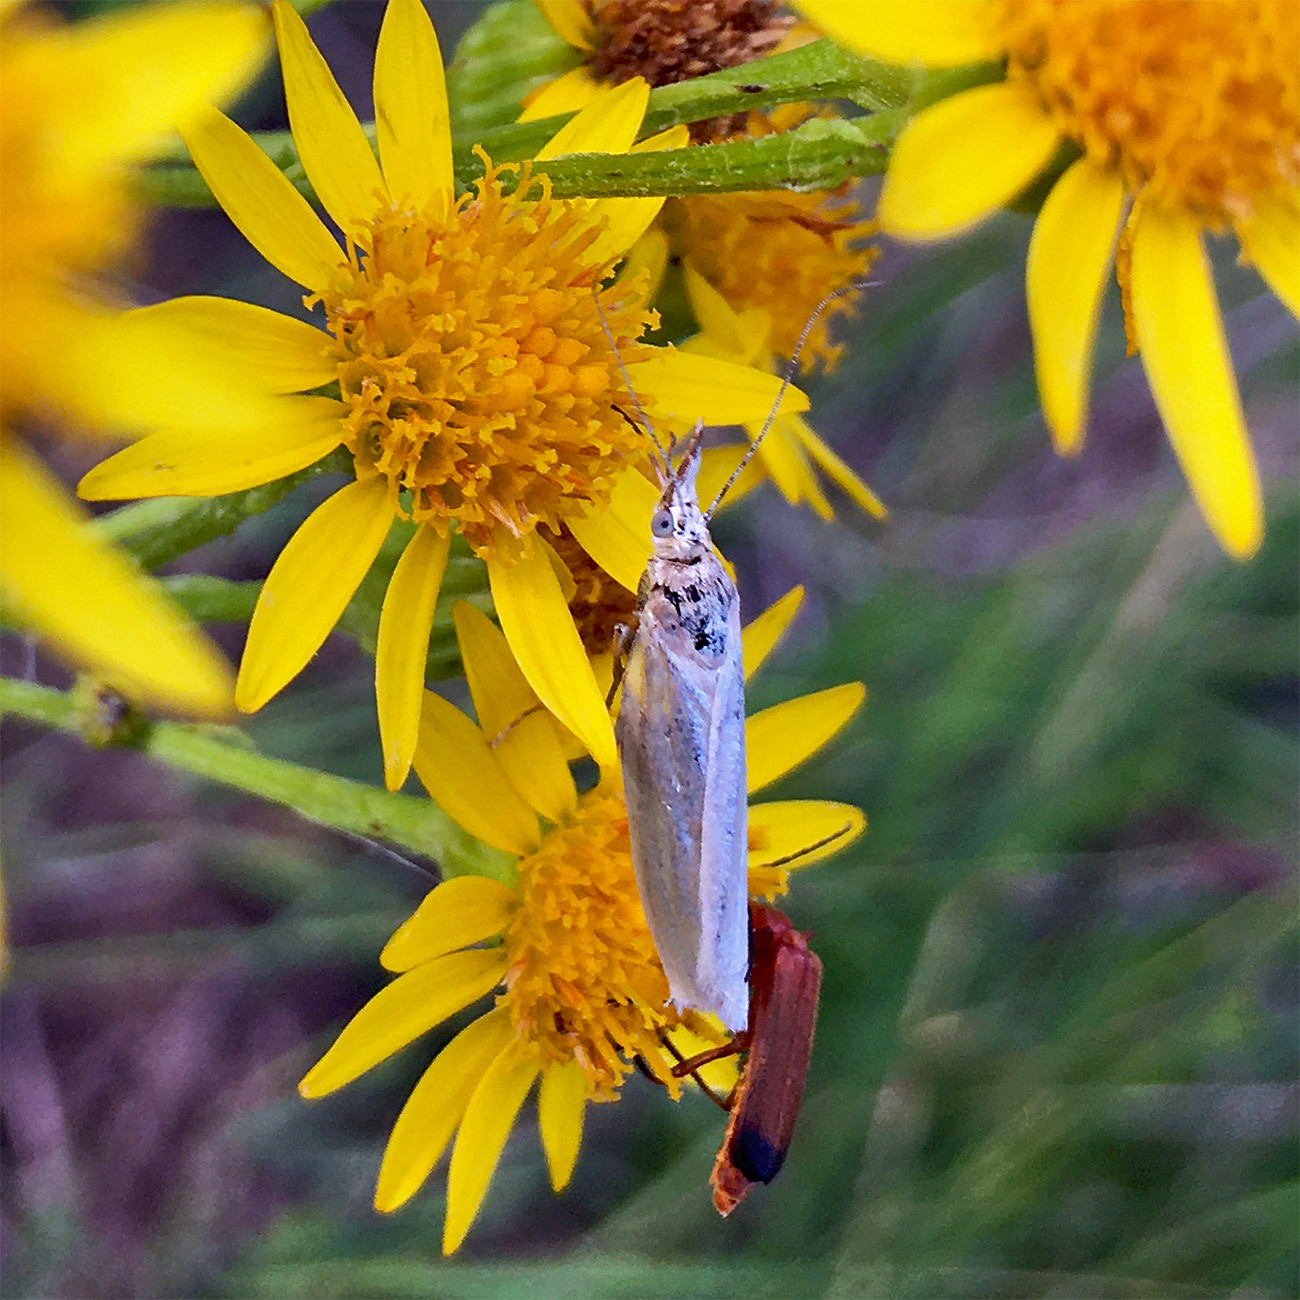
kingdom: Animalia
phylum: Arthropoda
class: Insecta
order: Lepidoptera
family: Crambidae
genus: Crambus
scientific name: Crambus perlellus
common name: Yellow satin veneer
